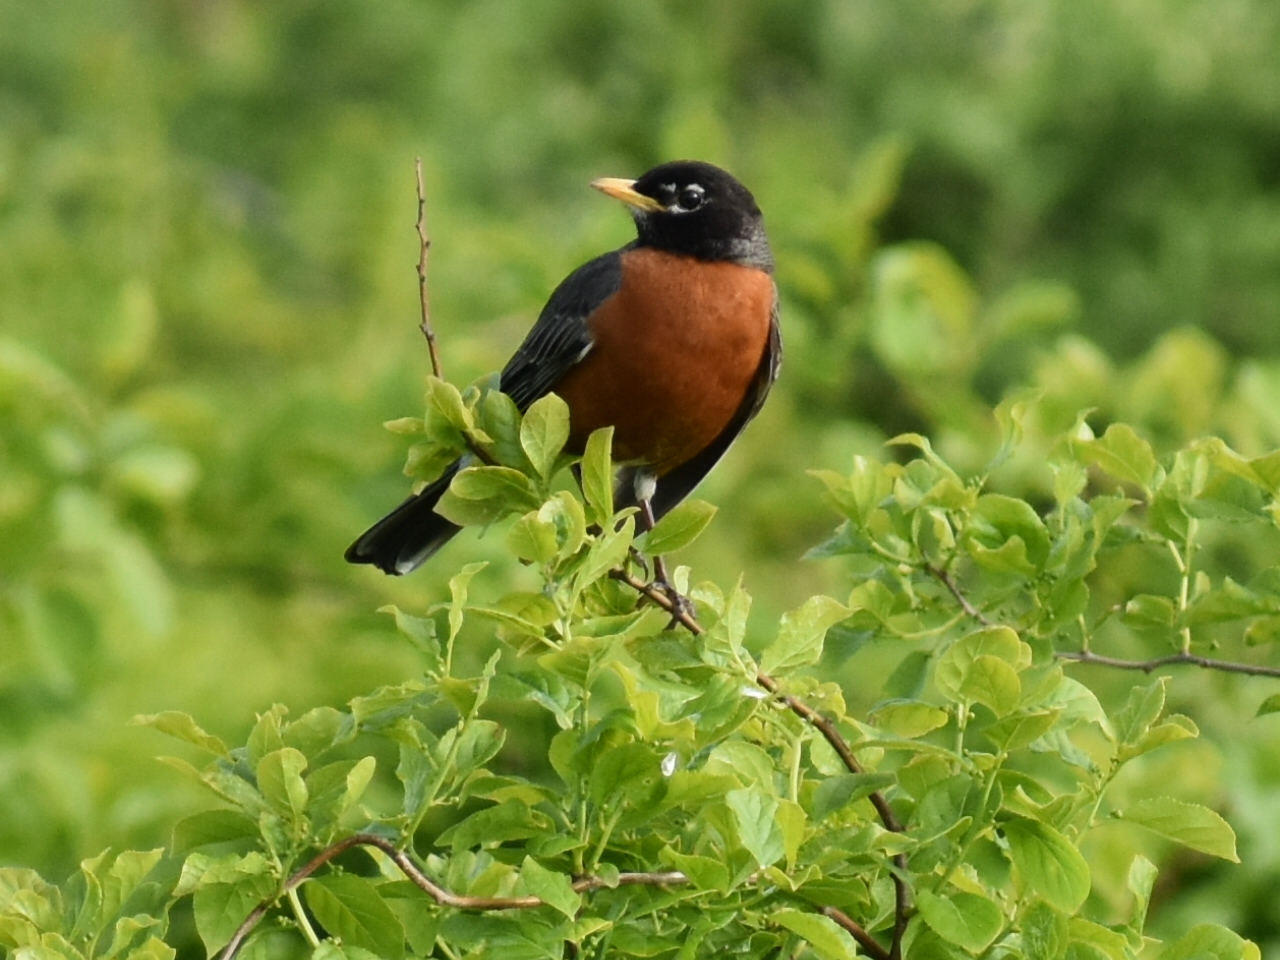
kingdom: Animalia
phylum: Chordata
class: Aves
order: Passeriformes
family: Turdidae
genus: Turdus
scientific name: Turdus migratorius
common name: American robin
